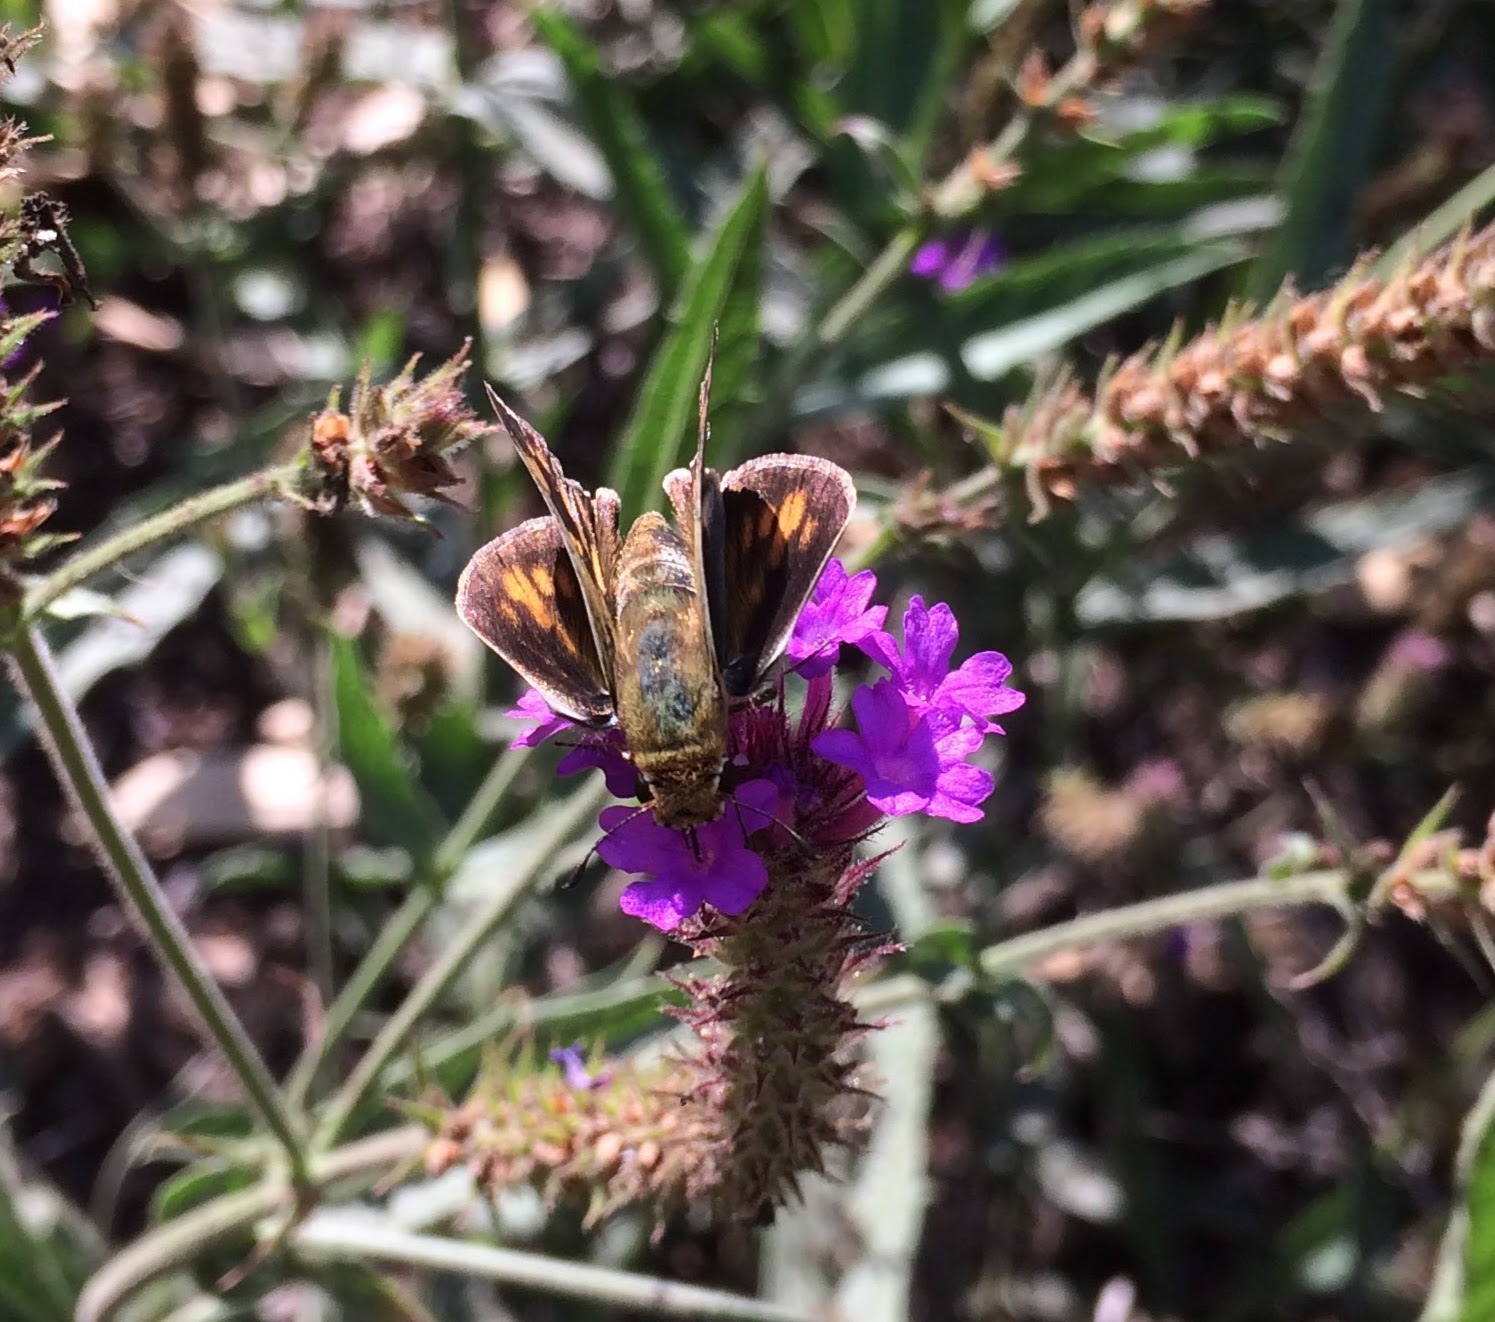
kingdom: Animalia
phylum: Arthropoda
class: Insecta
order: Lepidoptera
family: Hesperiidae
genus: Hylephila
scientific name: Hylephila phyleus
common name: Fiery skipper
